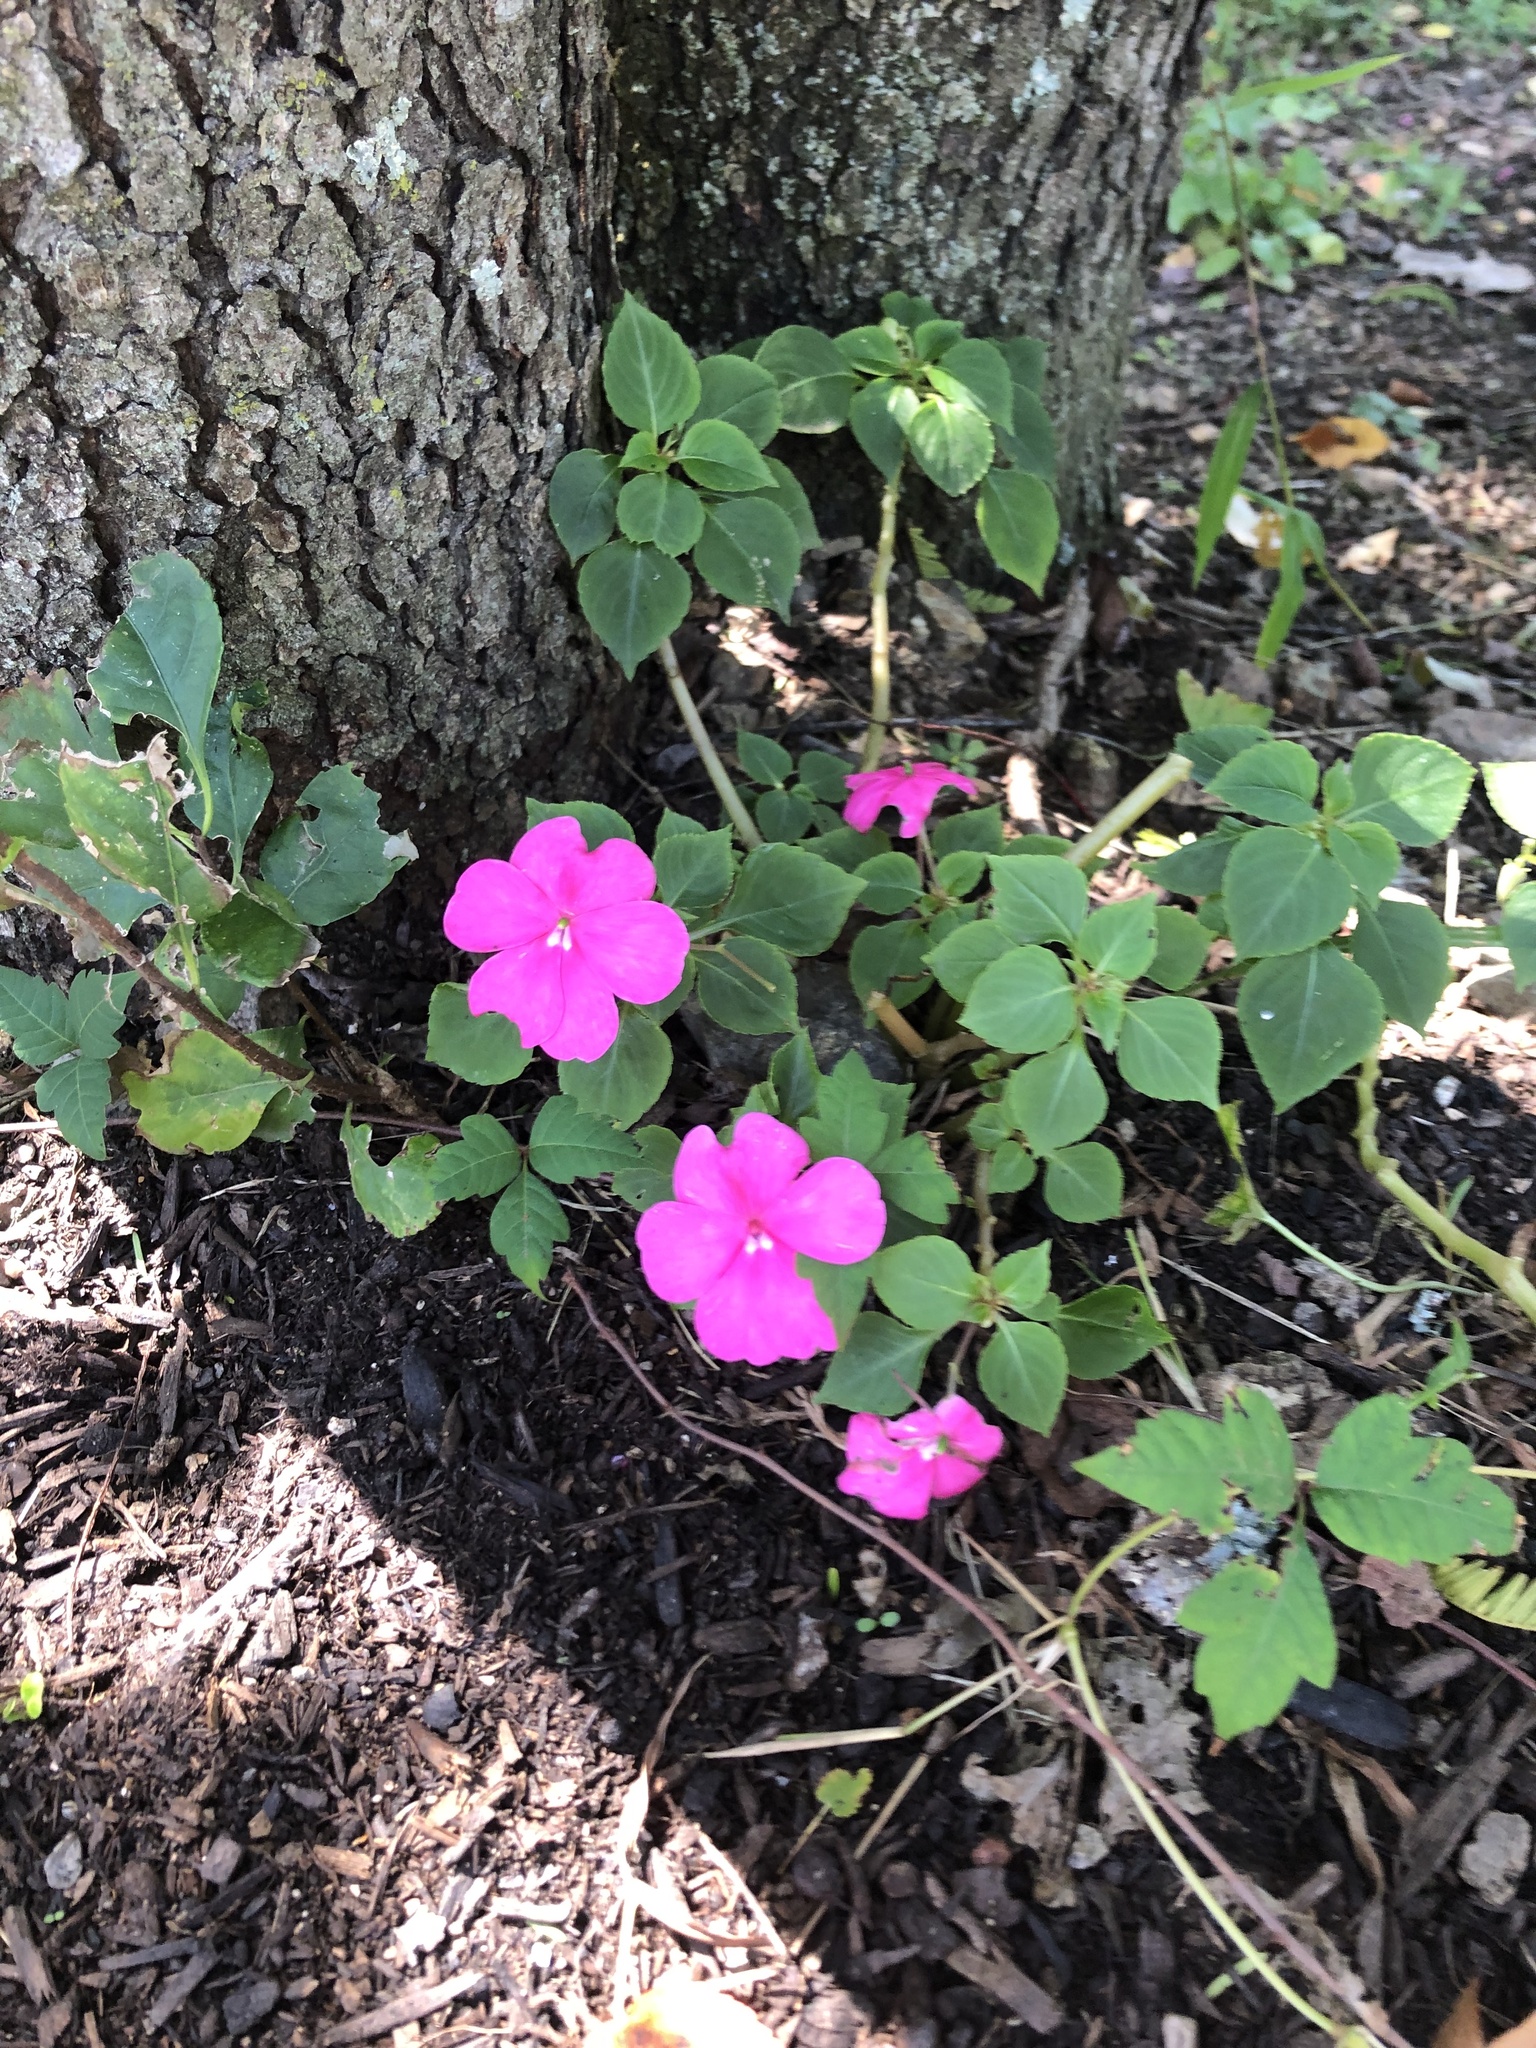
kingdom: Plantae
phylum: Tracheophyta
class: Magnoliopsida
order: Ericales
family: Balsaminaceae
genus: Impatiens
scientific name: Impatiens walleriana
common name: Buzzy lizzy
